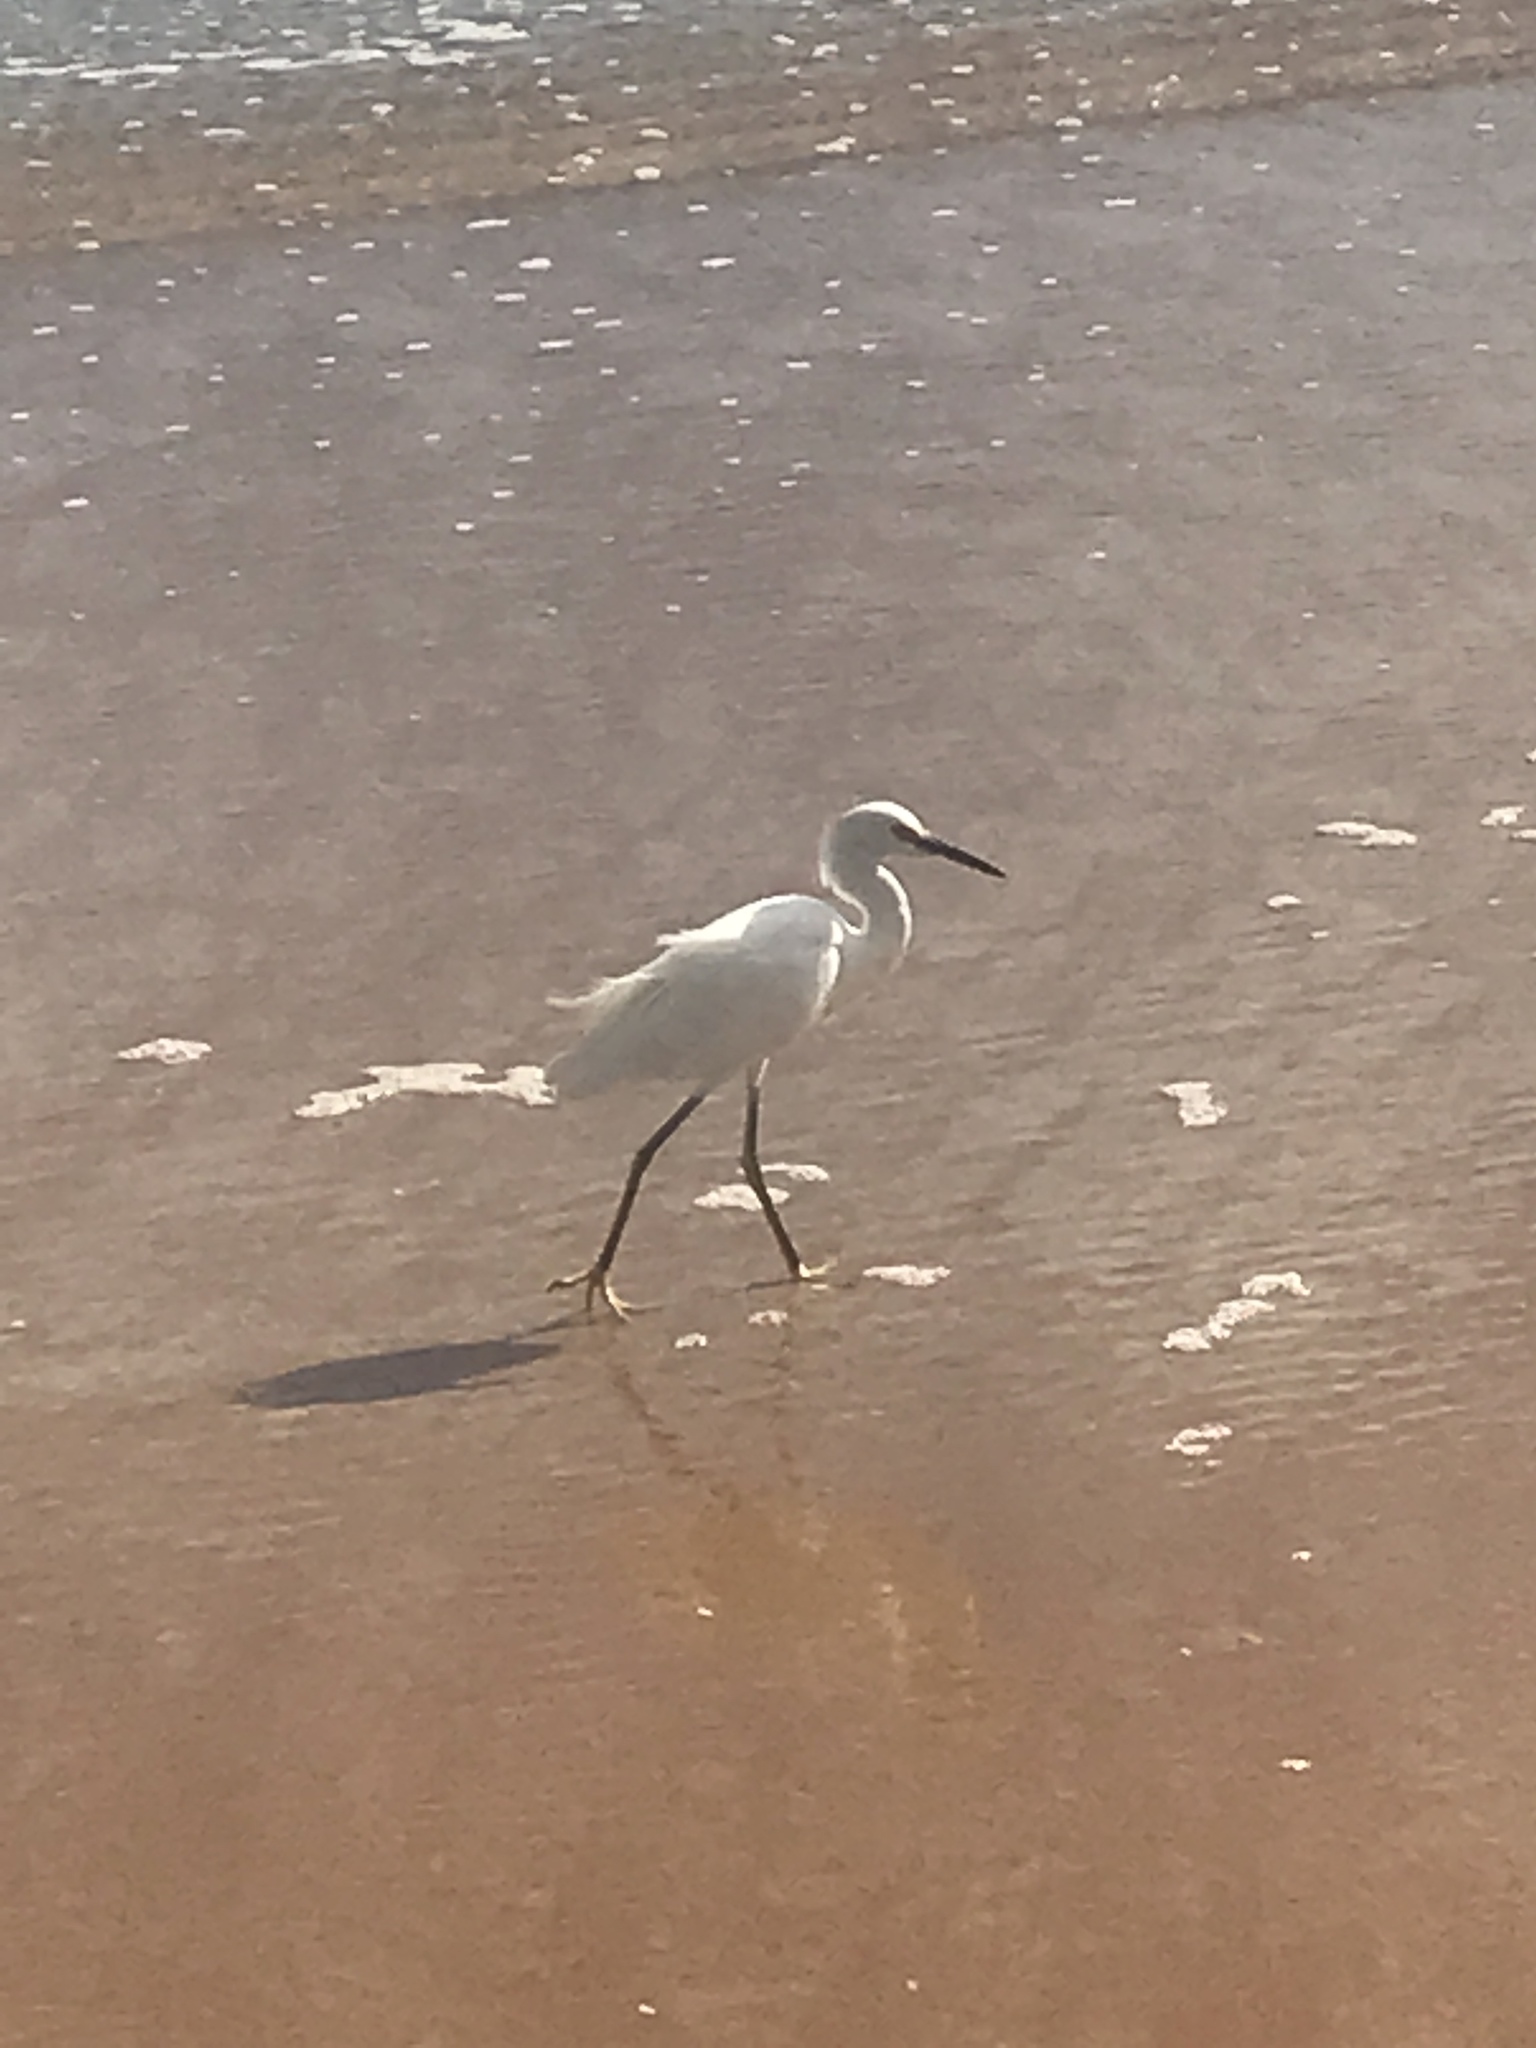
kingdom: Animalia
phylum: Chordata
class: Aves
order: Pelecaniformes
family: Ardeidae
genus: Egretta
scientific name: Egretta thula
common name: Snowy egret
